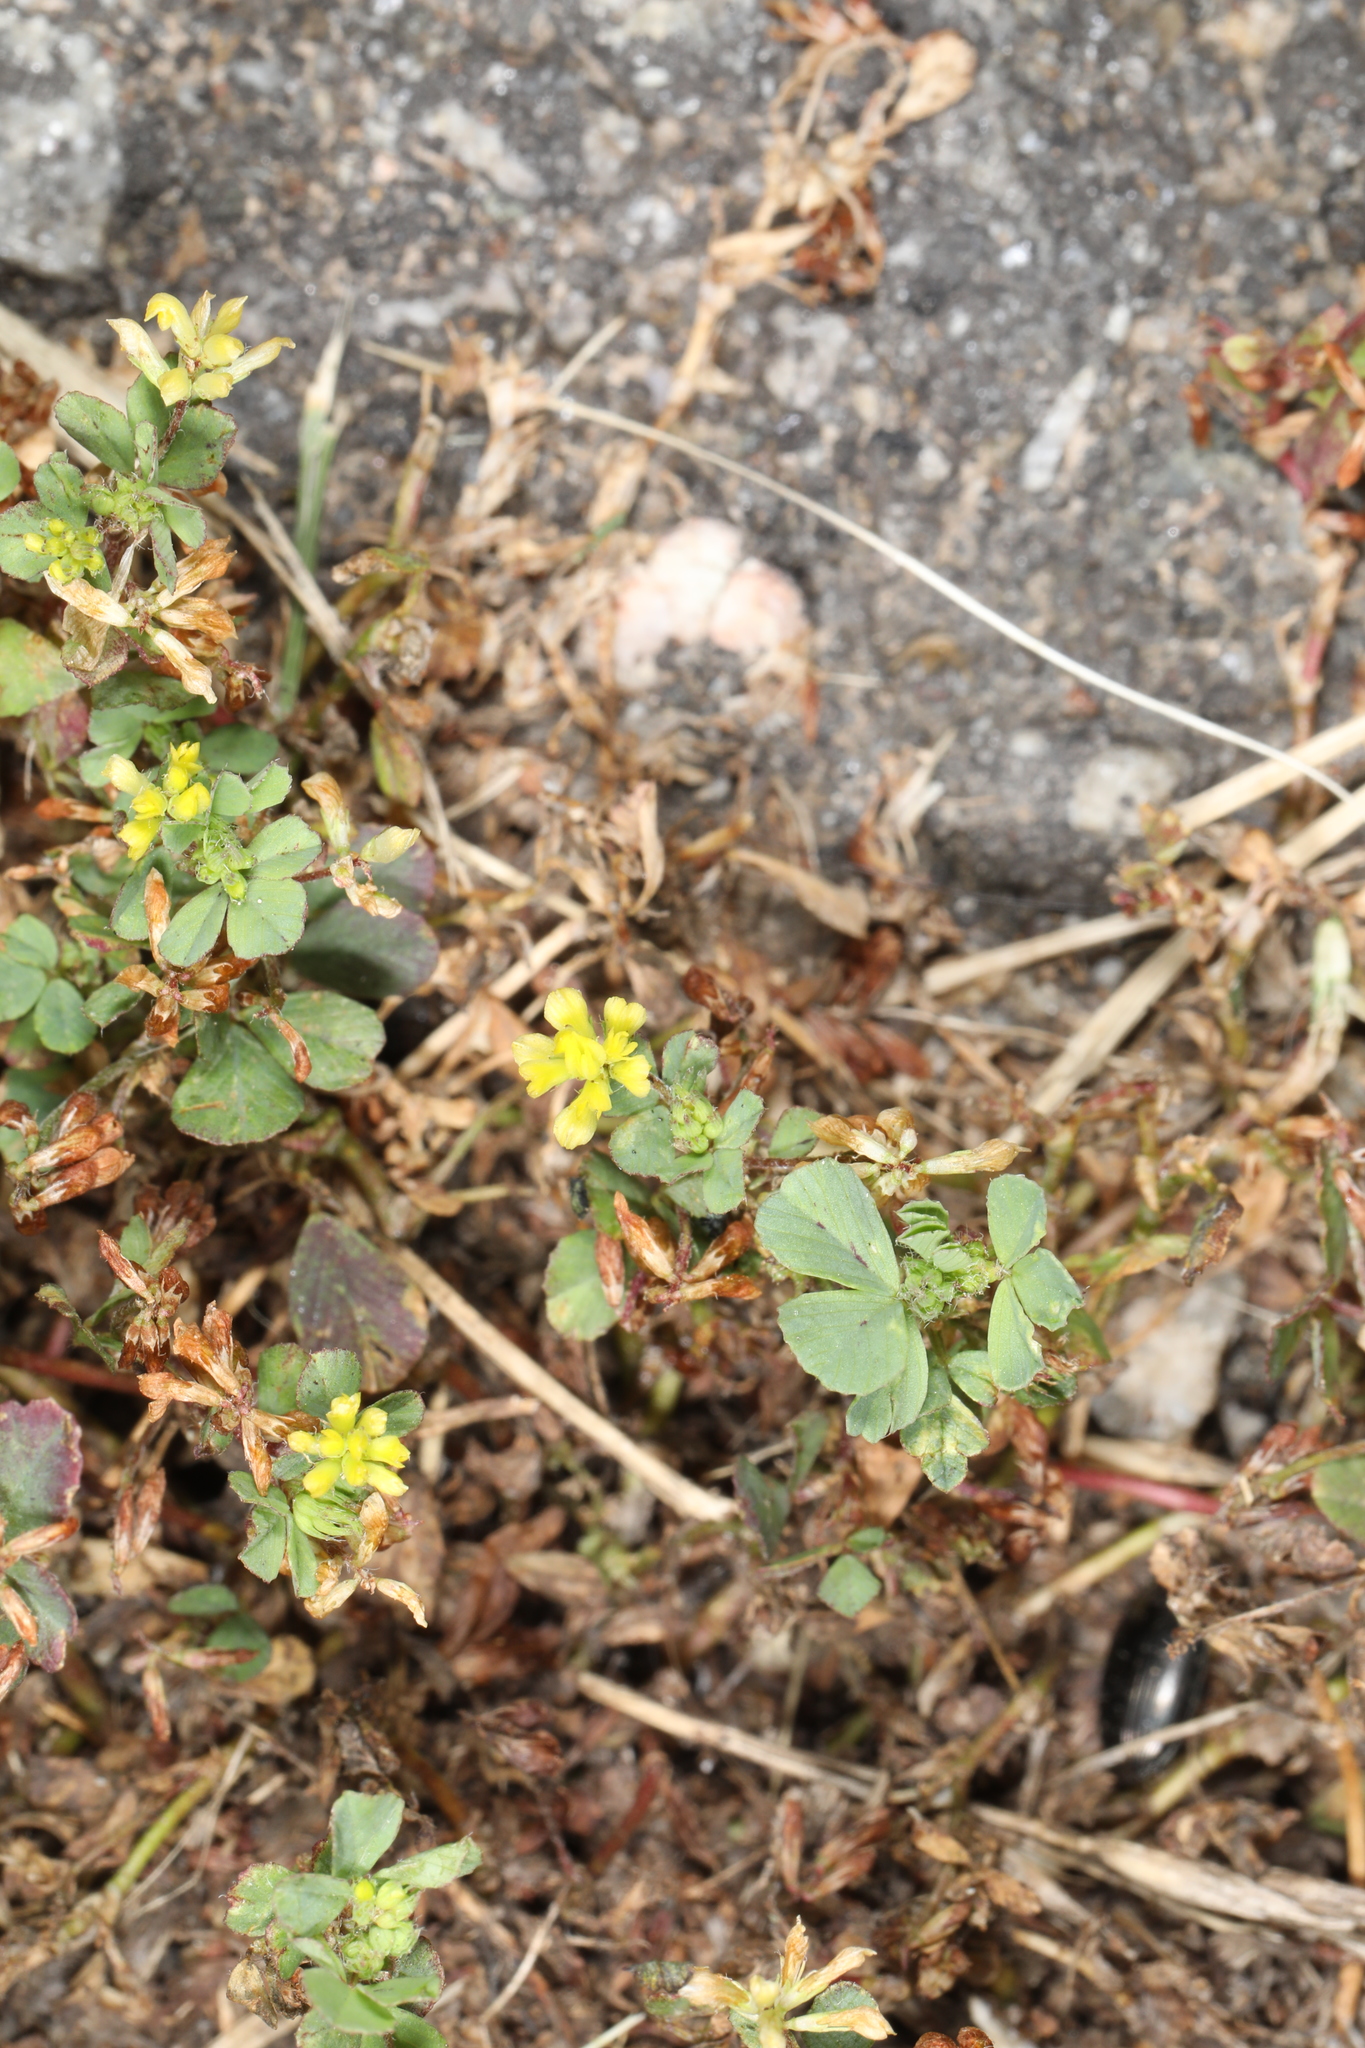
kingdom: Plantae
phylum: Tracheophyta
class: Magnoliopsida
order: Fabales
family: Fabaceae
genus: Trifolium
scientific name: Trifolium dubium
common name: Suckling clover
